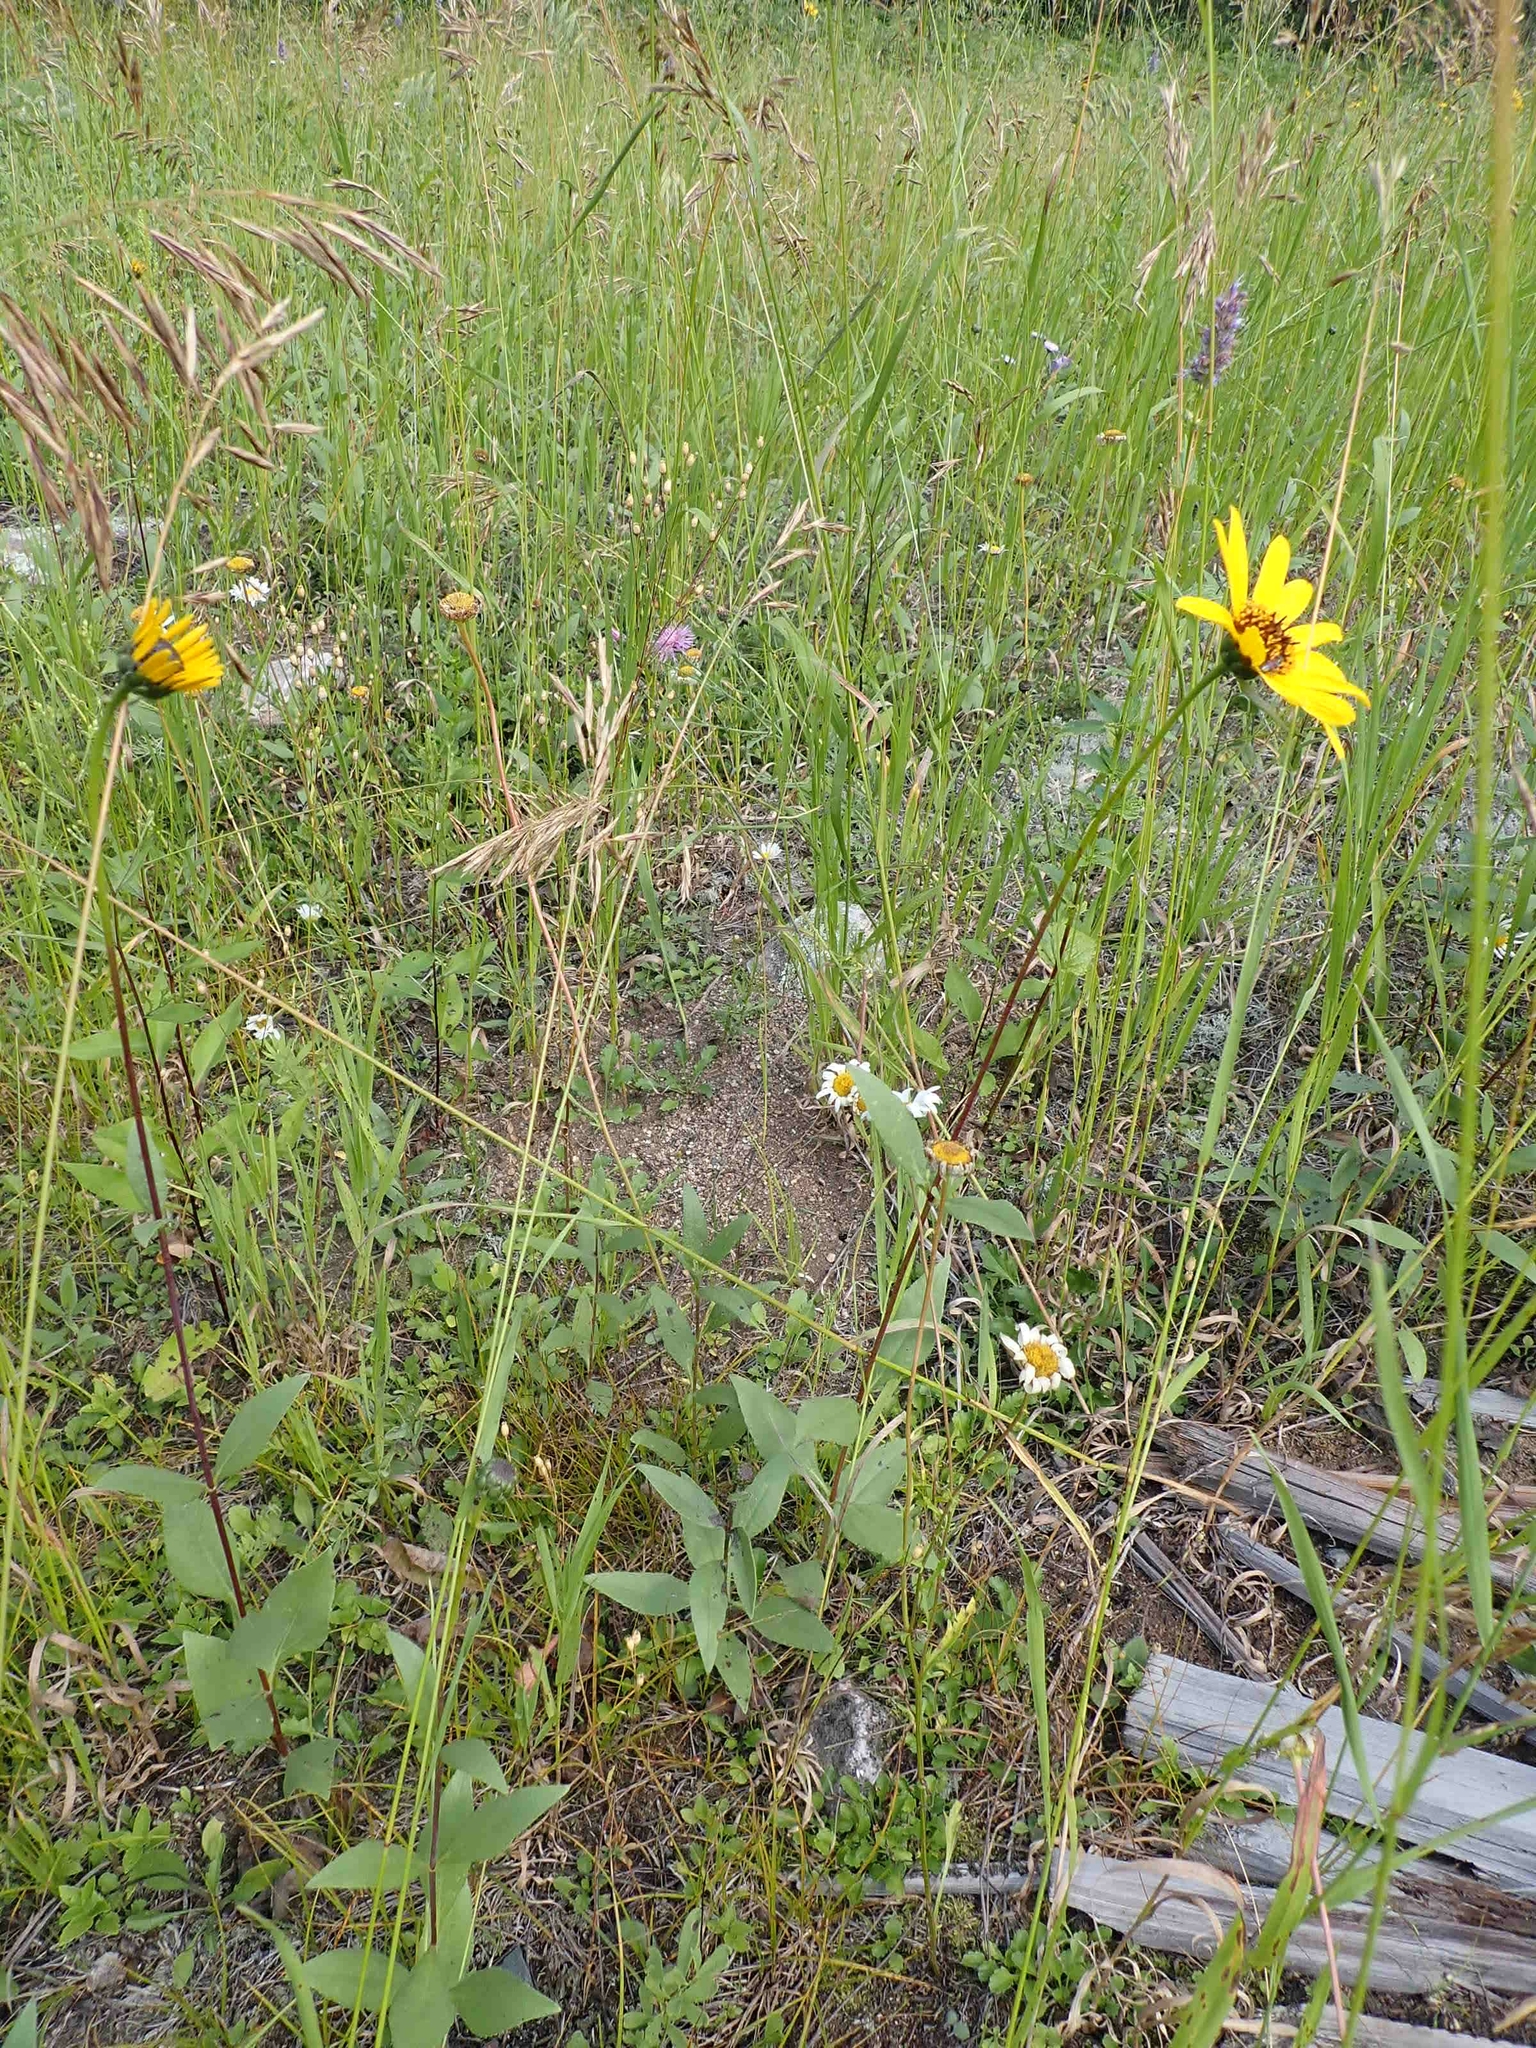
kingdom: Plantae
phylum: Tracheophyta
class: Magnoliopsida
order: Asterales
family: Asteraceae
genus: Helianthus
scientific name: Helianthus pauciflorus
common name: Stiff sunflower
